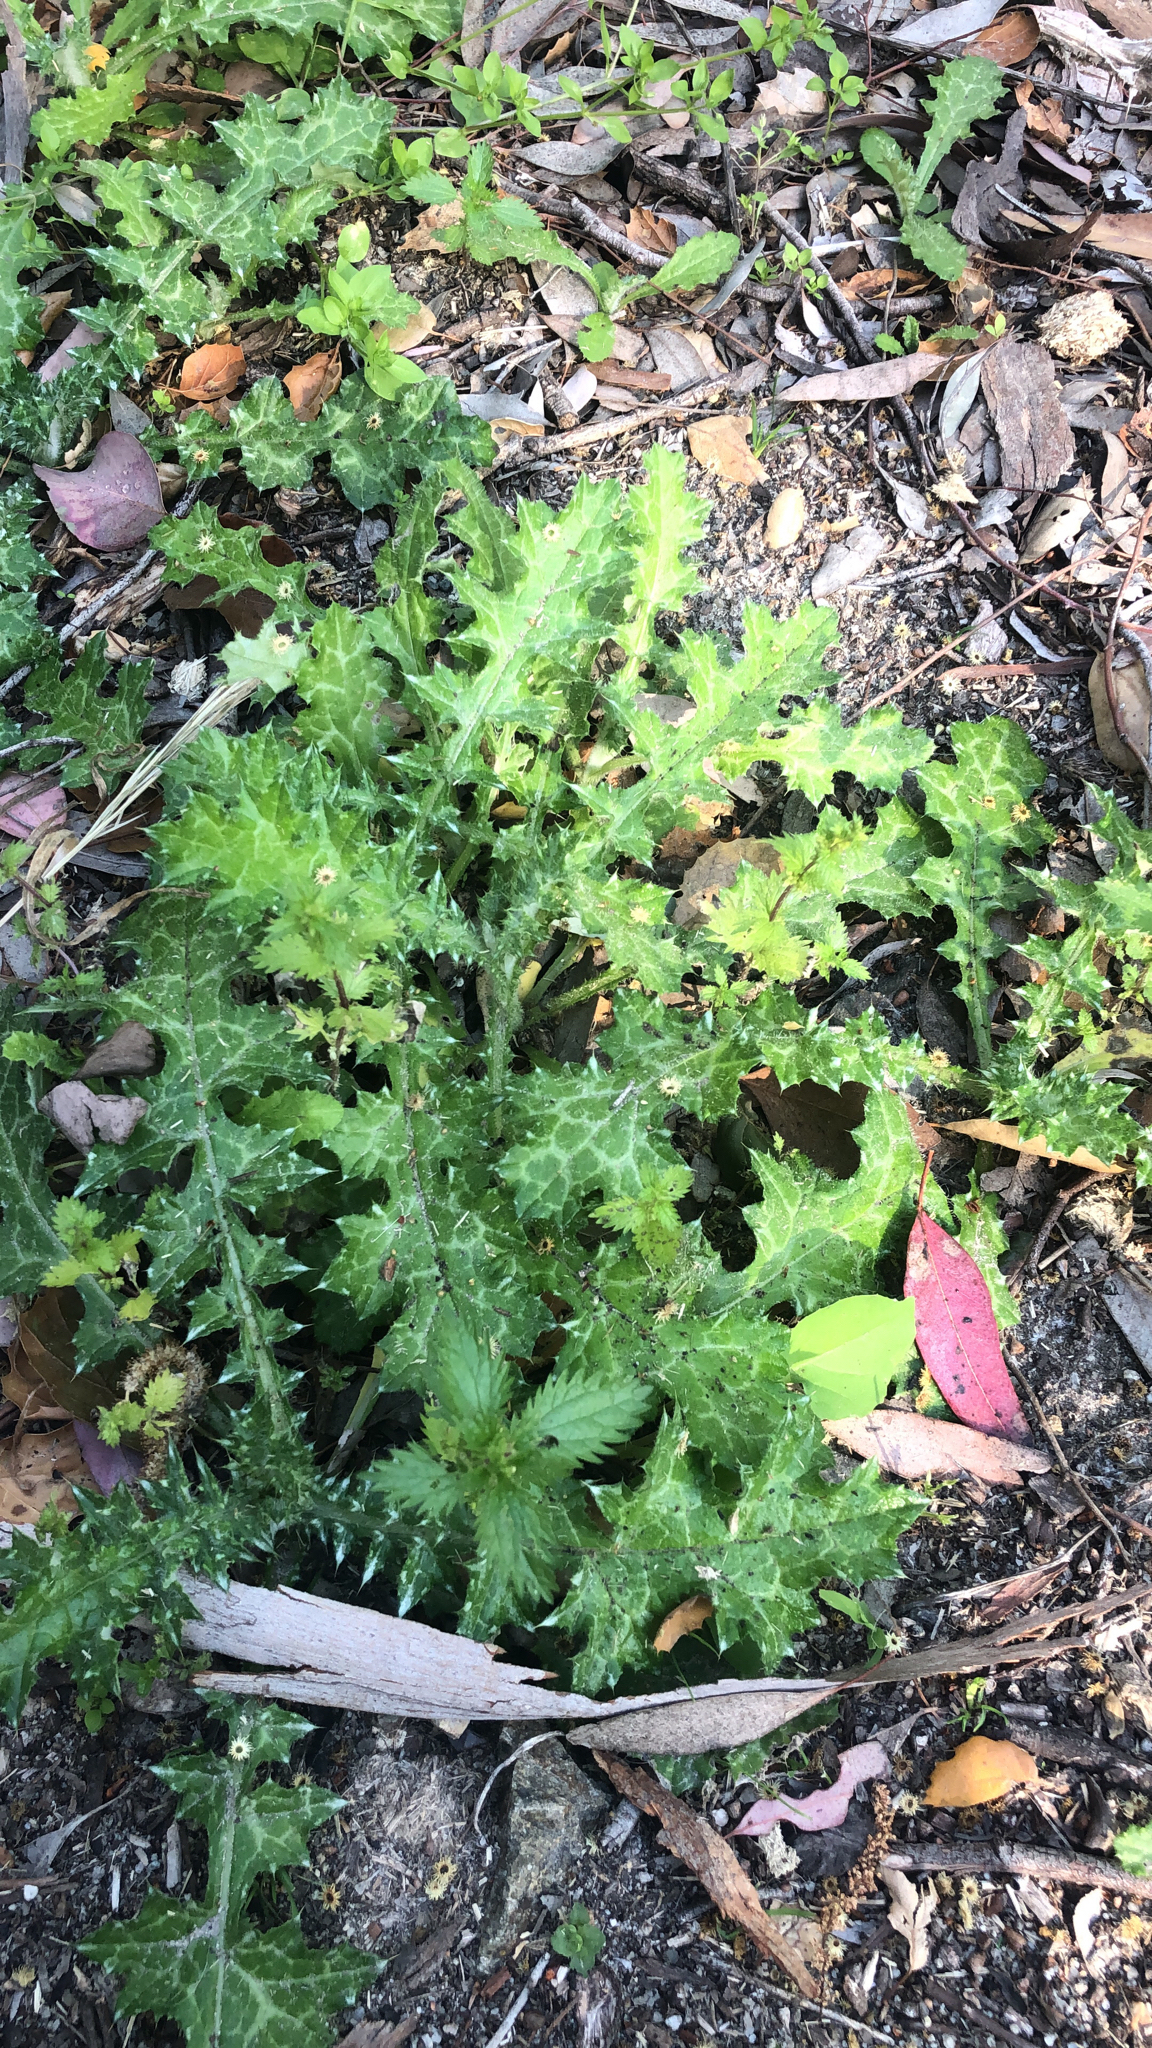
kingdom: Plantae
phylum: Tracheophyta
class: Magnoliopsida
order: Asterales
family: Asteraceae
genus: Carduus
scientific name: Carduus pycnocephalus
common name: Plymouth thistle
